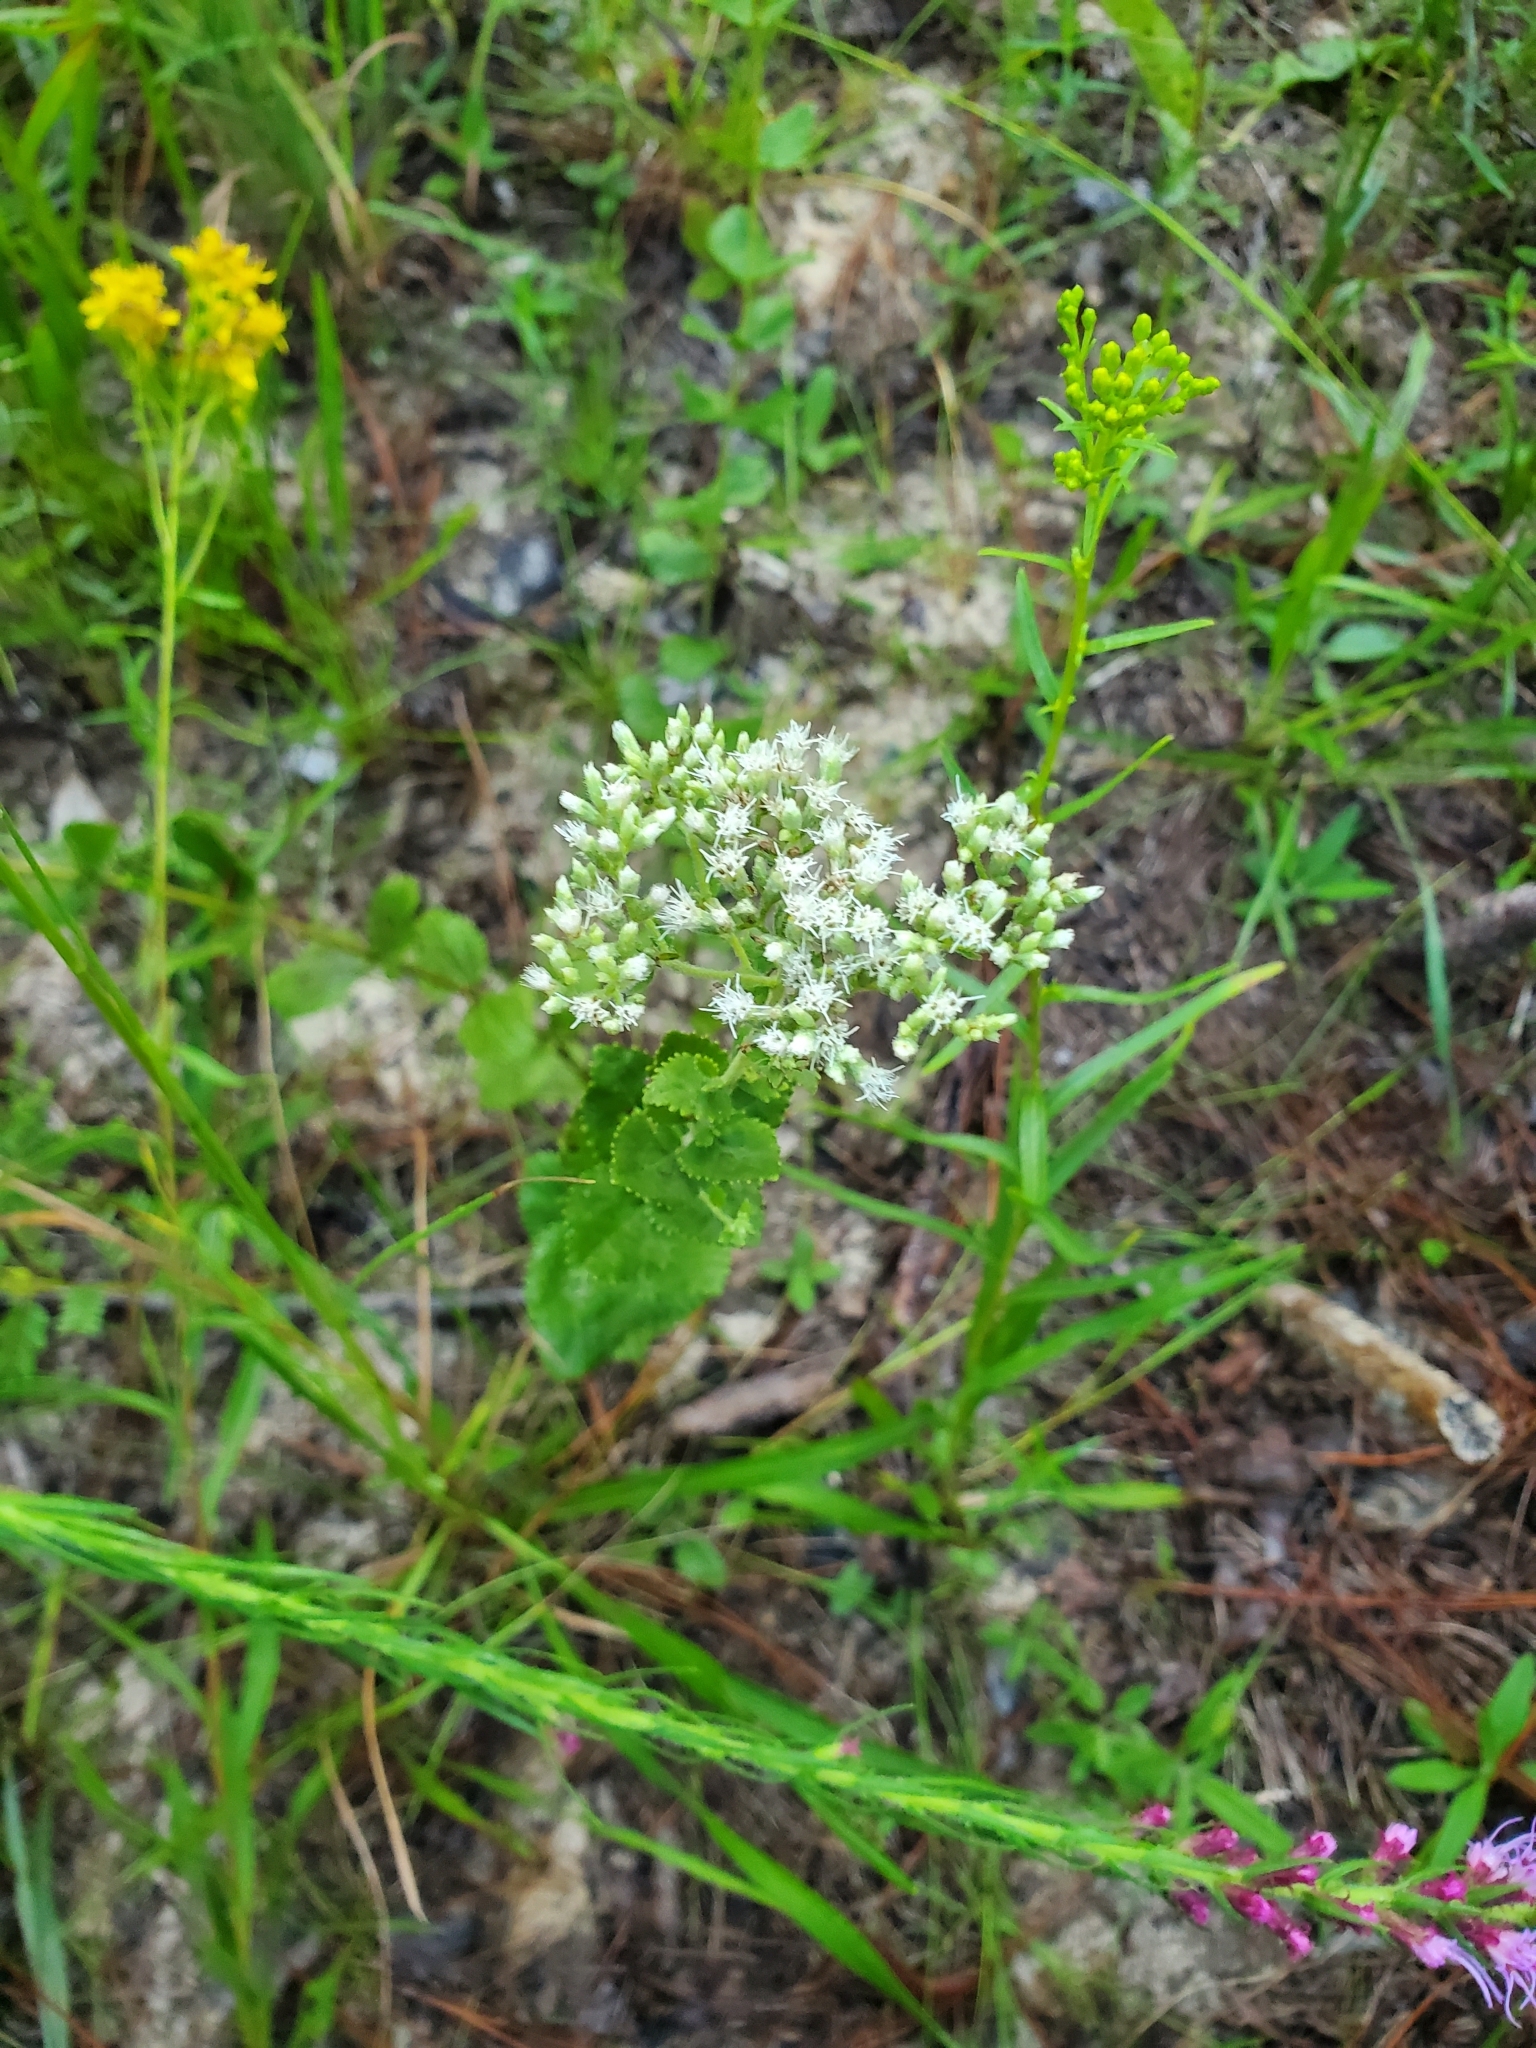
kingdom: Plantae
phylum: Tracheophyta
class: Magnoliopsida
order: Asterales
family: Asteraceae
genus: Eupatorium
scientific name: Eupatorium rotundifolium
